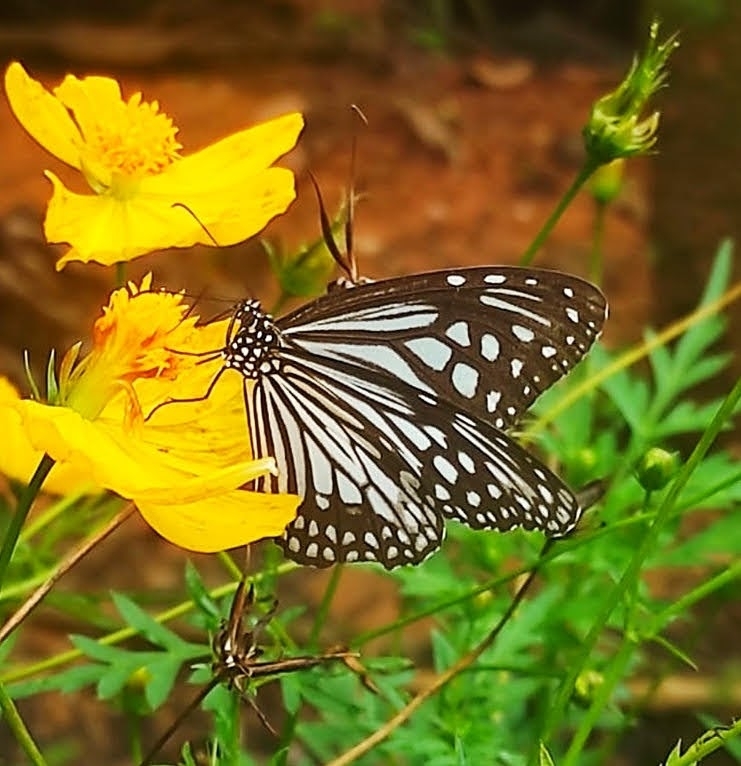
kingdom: Animalia
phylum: Arthropoda
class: Insecta
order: Lepidoptera
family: Nymphalidae
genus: Parantica
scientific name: Parantica aglea
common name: Glassy tiger
